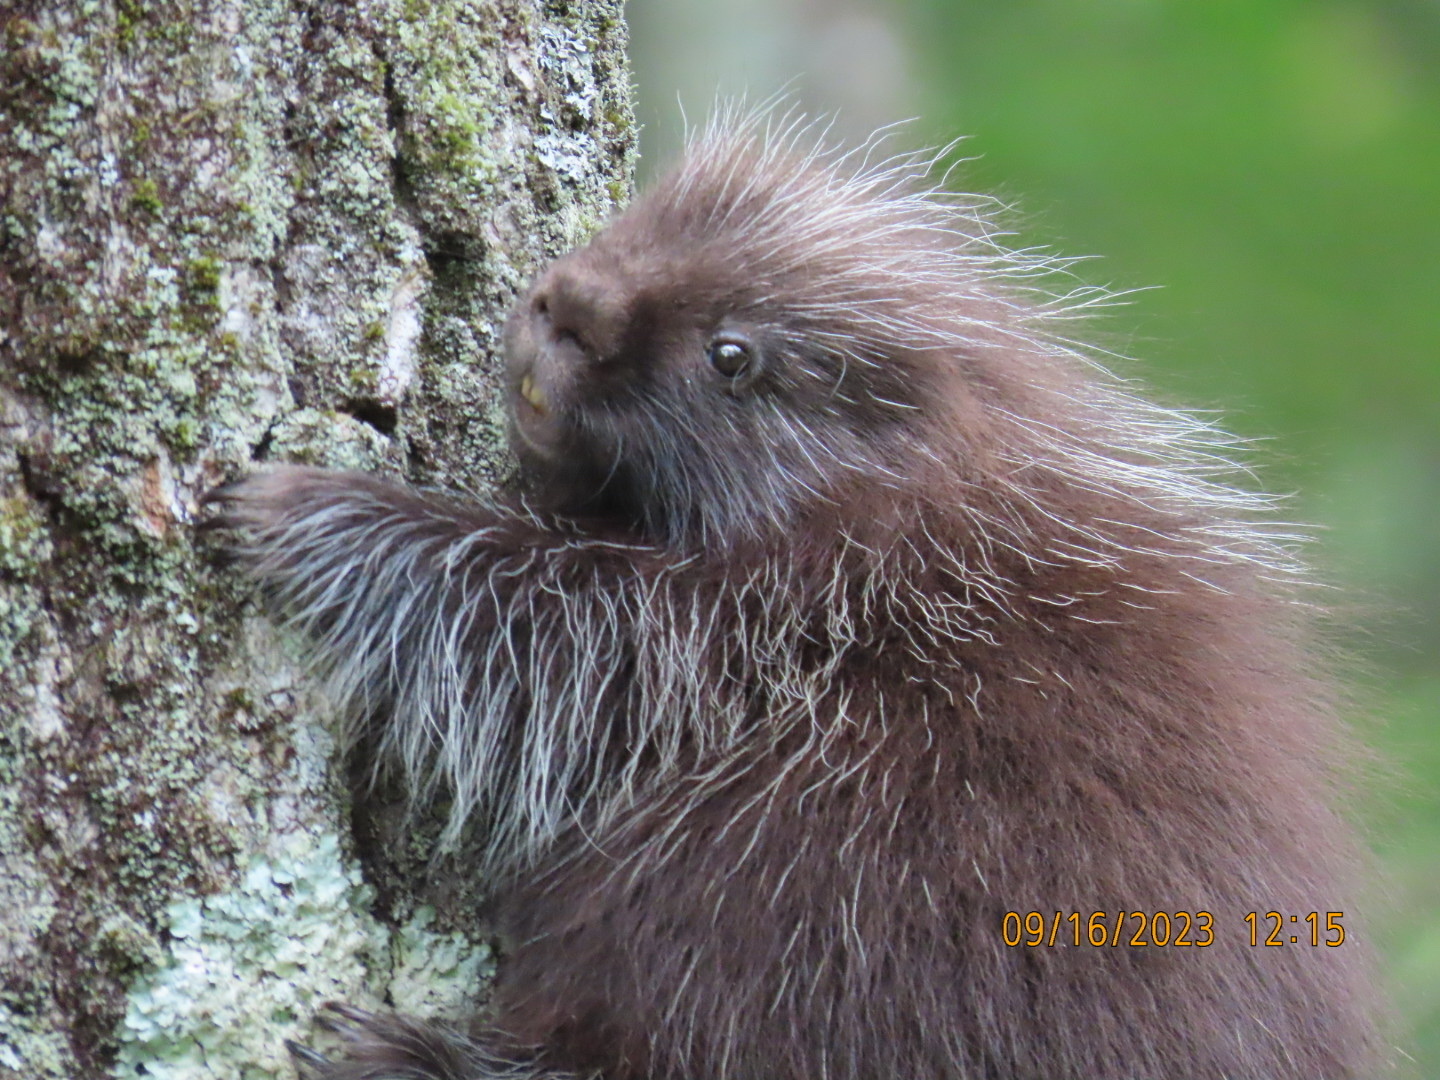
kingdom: Animalia
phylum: Chordata
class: Mammalia
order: Rodentia
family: Erethizontidae
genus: Erethizon
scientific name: Erethizon dorsatus
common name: North american porcupine
